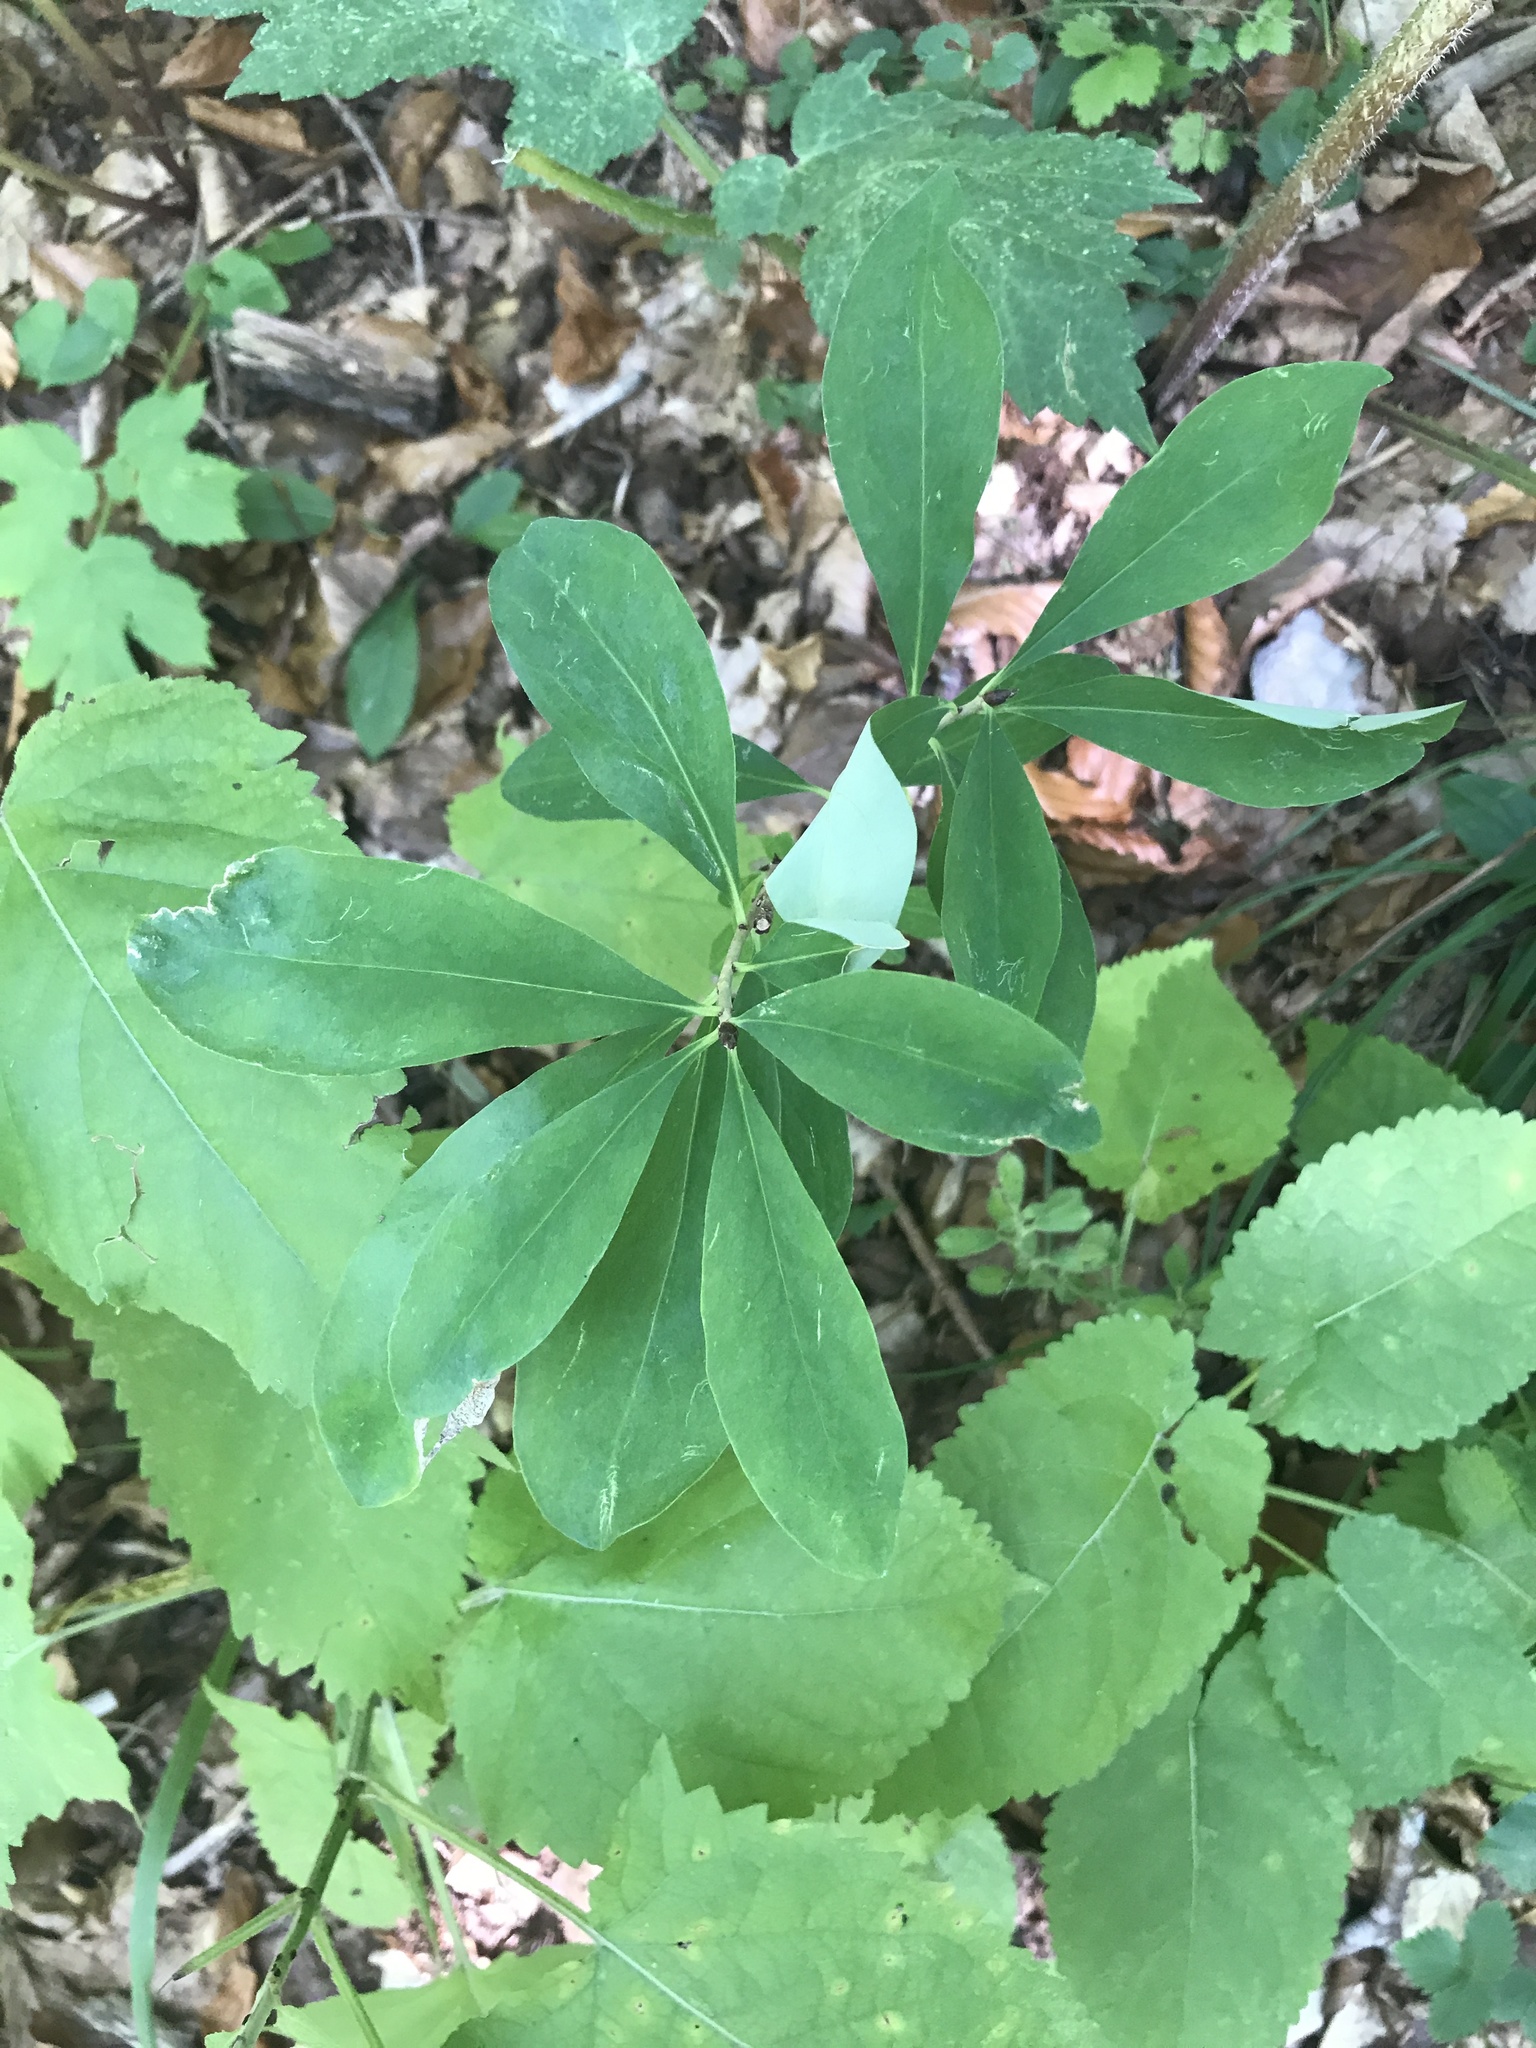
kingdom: Plantae
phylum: Tracheophyta
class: Magnoliopsida
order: Malvales
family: Thymelaeaceae
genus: Daphne
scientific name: Daphne mezereum
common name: Mezereon
